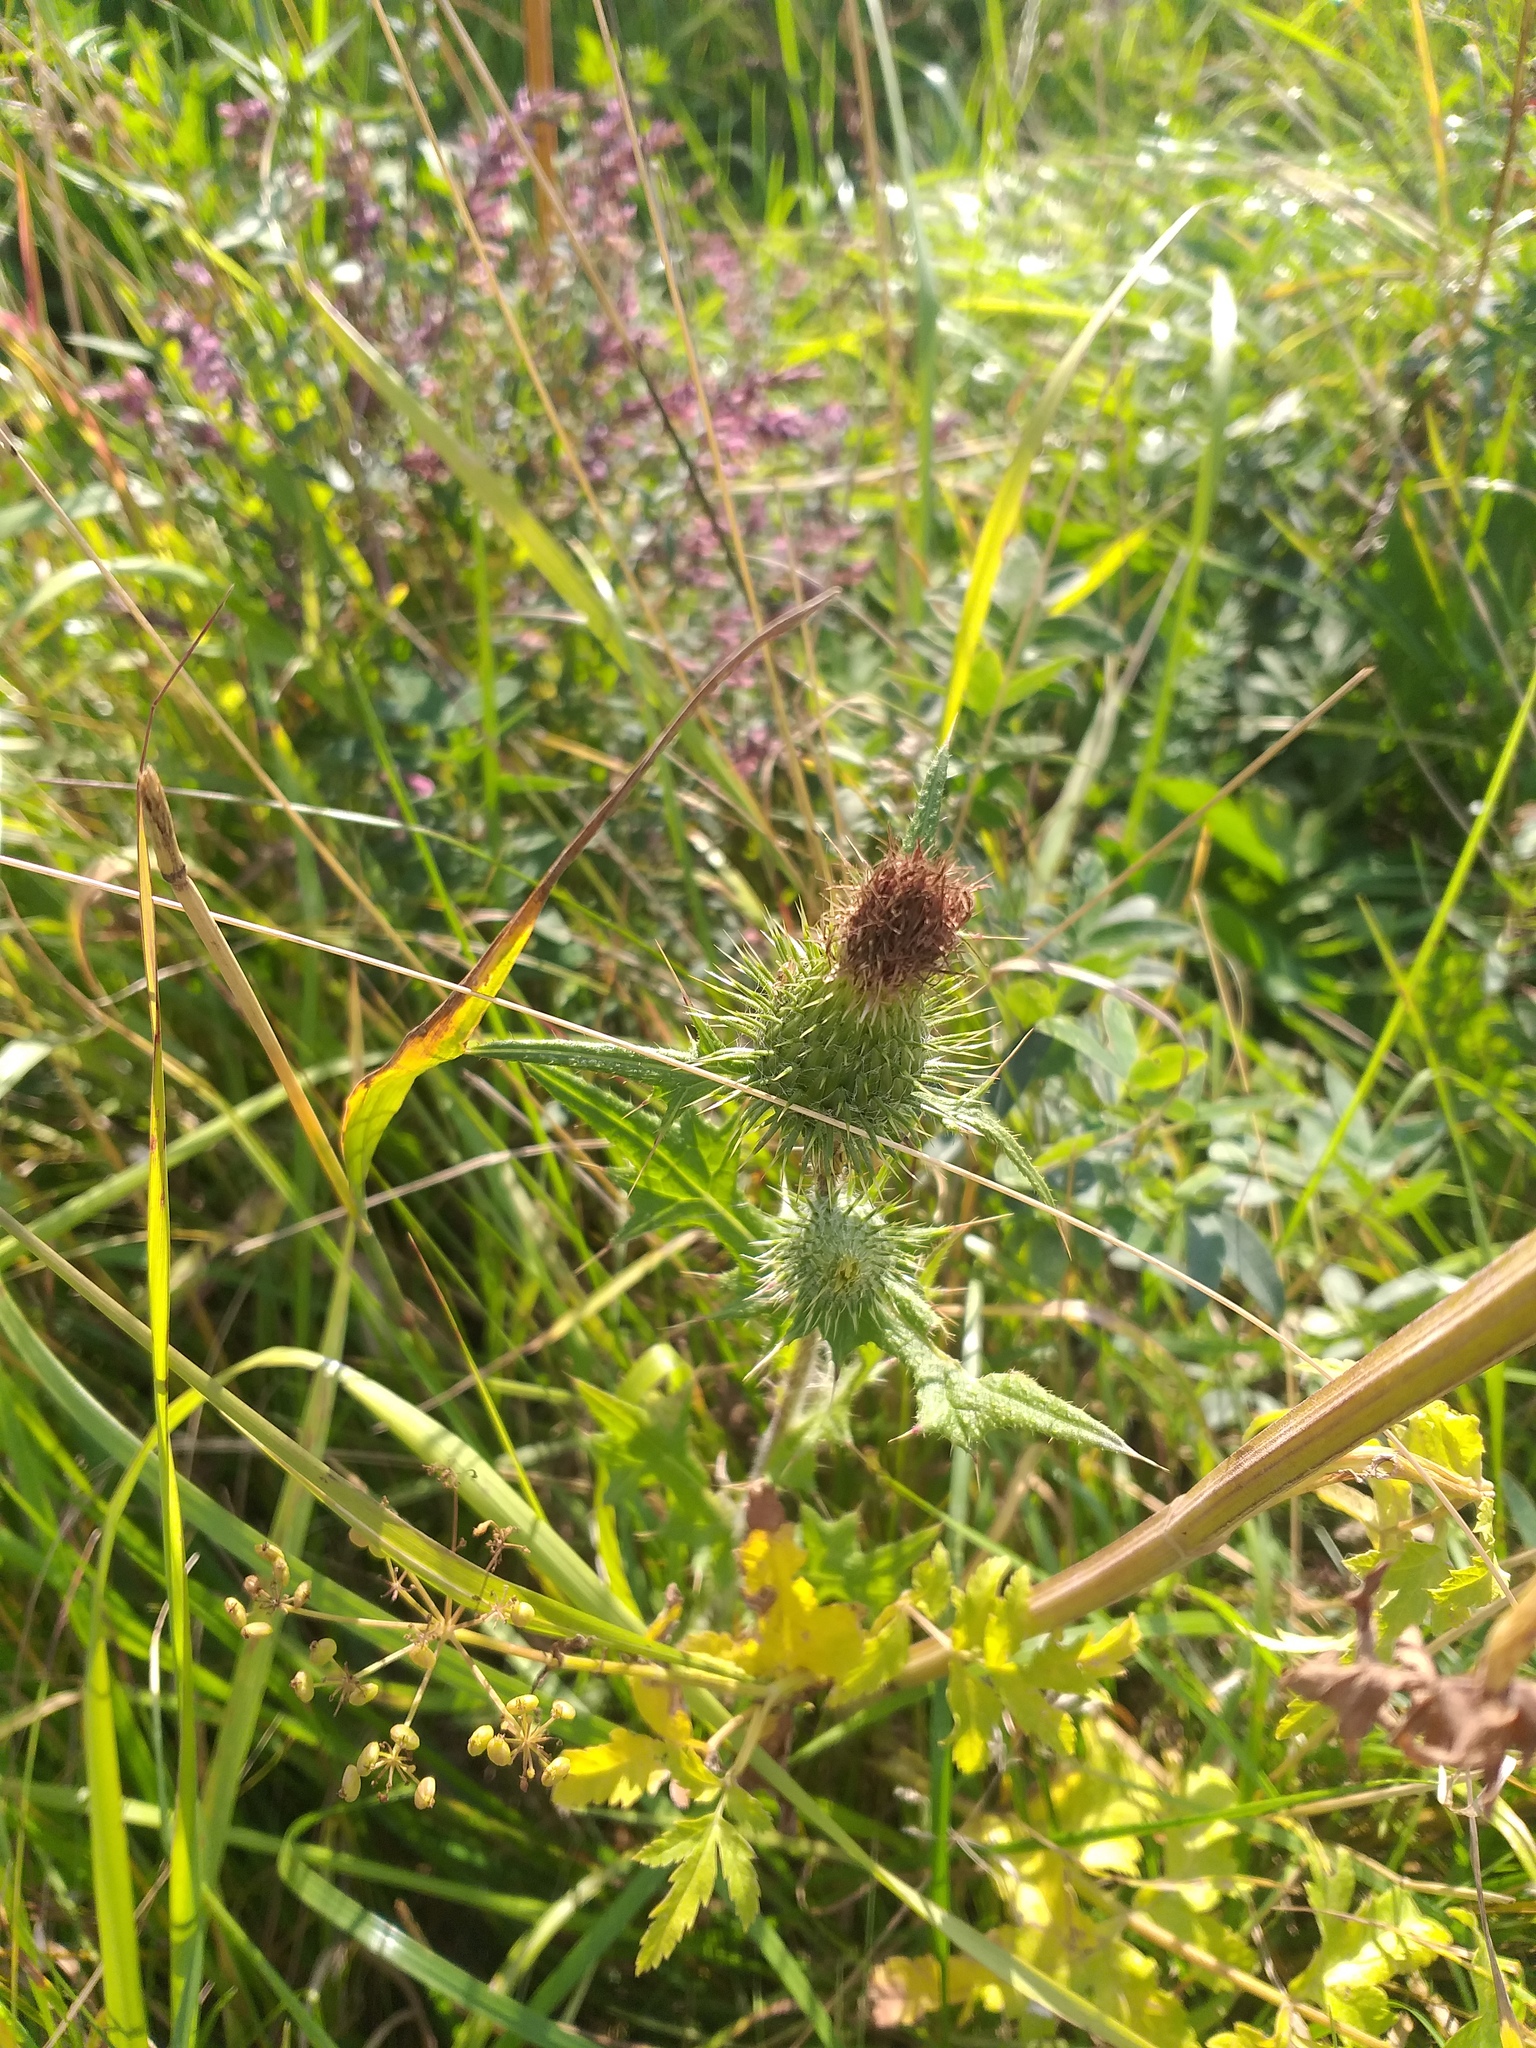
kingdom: Plantae
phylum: Tracheophyta
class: Magnoliopsida
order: Asterales
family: Asteraceae
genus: Cirsium
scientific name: Cirsium vulgare
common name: Bull thistle
